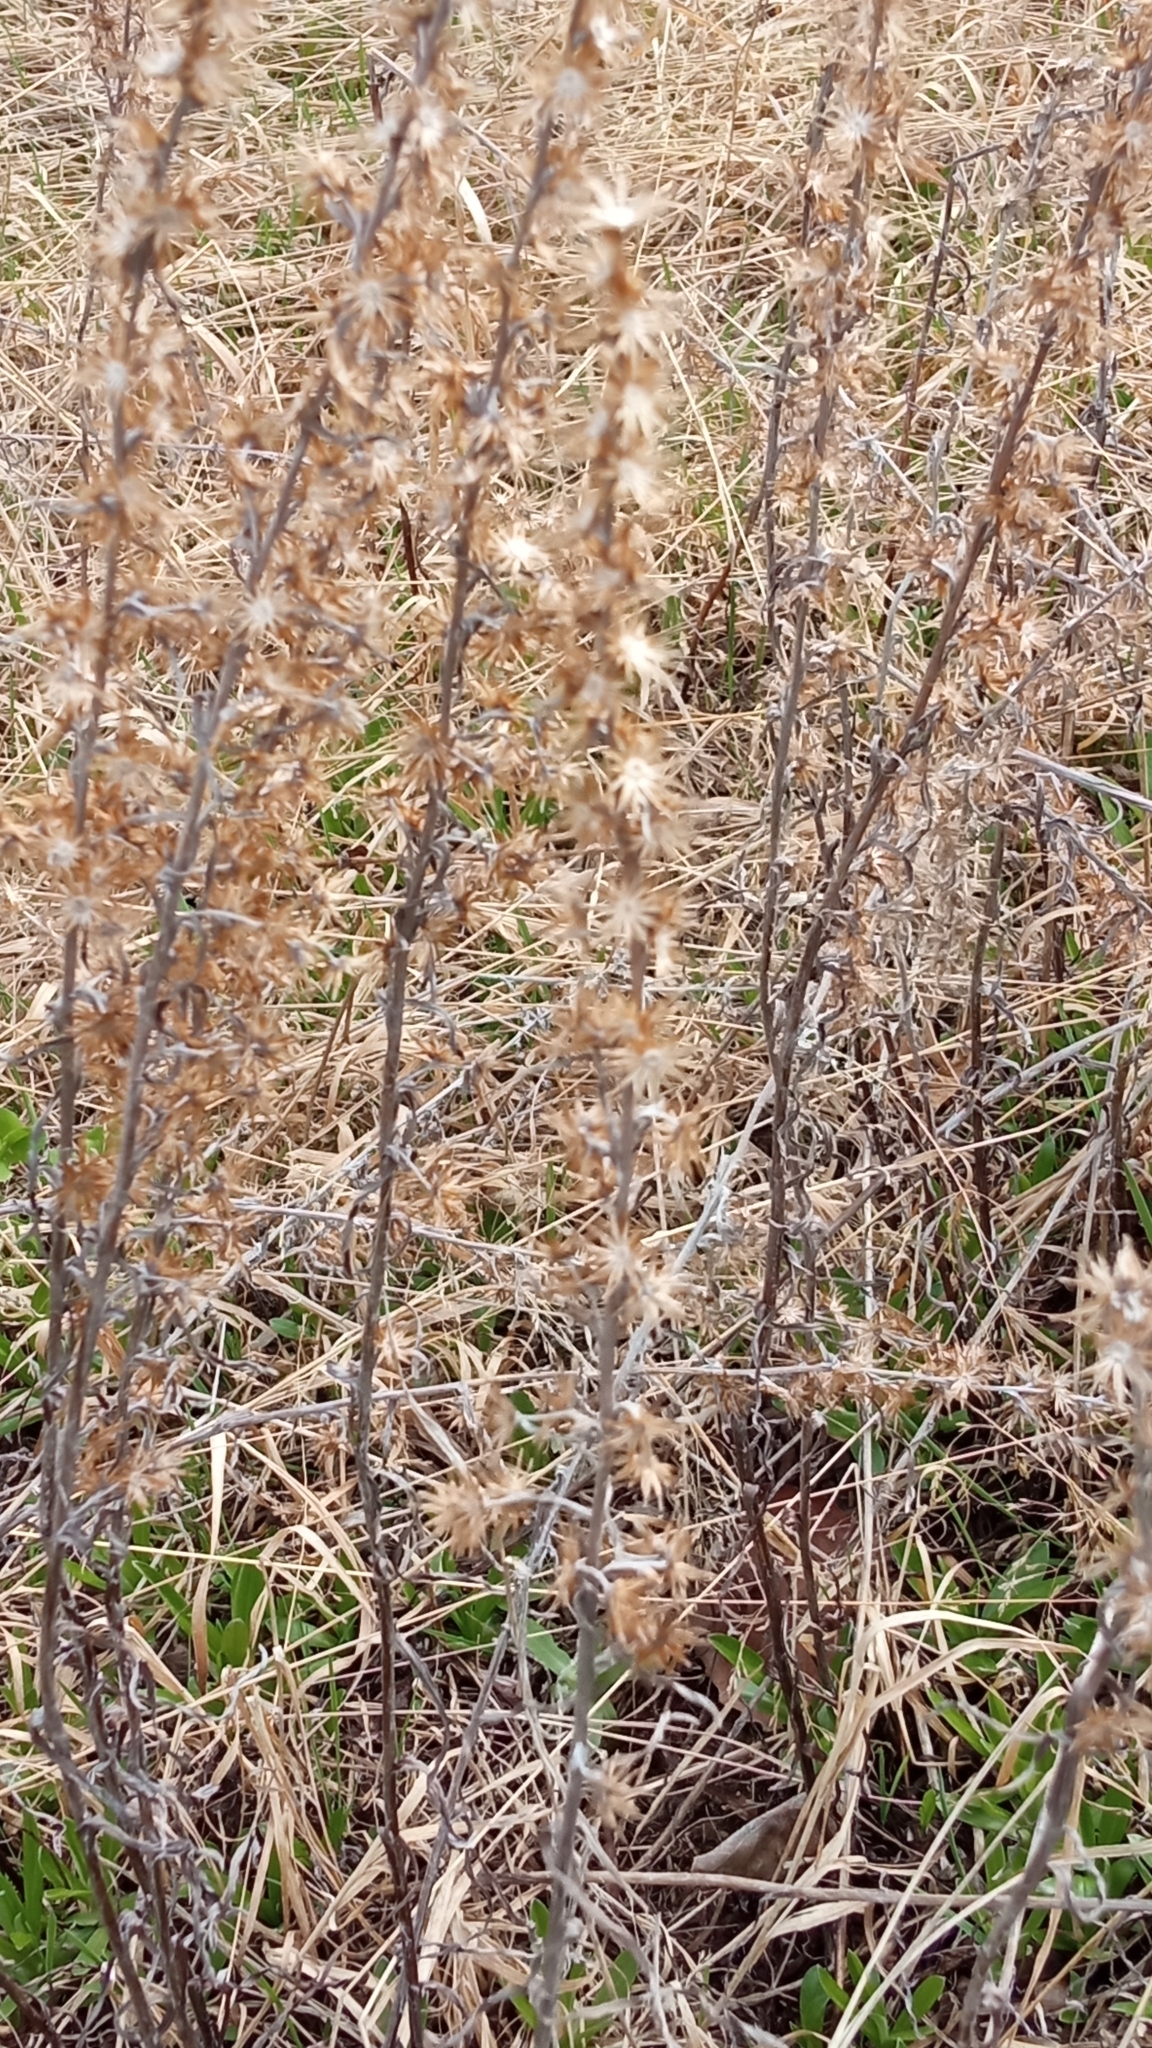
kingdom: Plantae
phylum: Tracheophyta
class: Magnoliopsida
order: Asterales
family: Asteraceae
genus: Omalotheca
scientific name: Omalotheca sylvatica
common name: Heath cudweed
